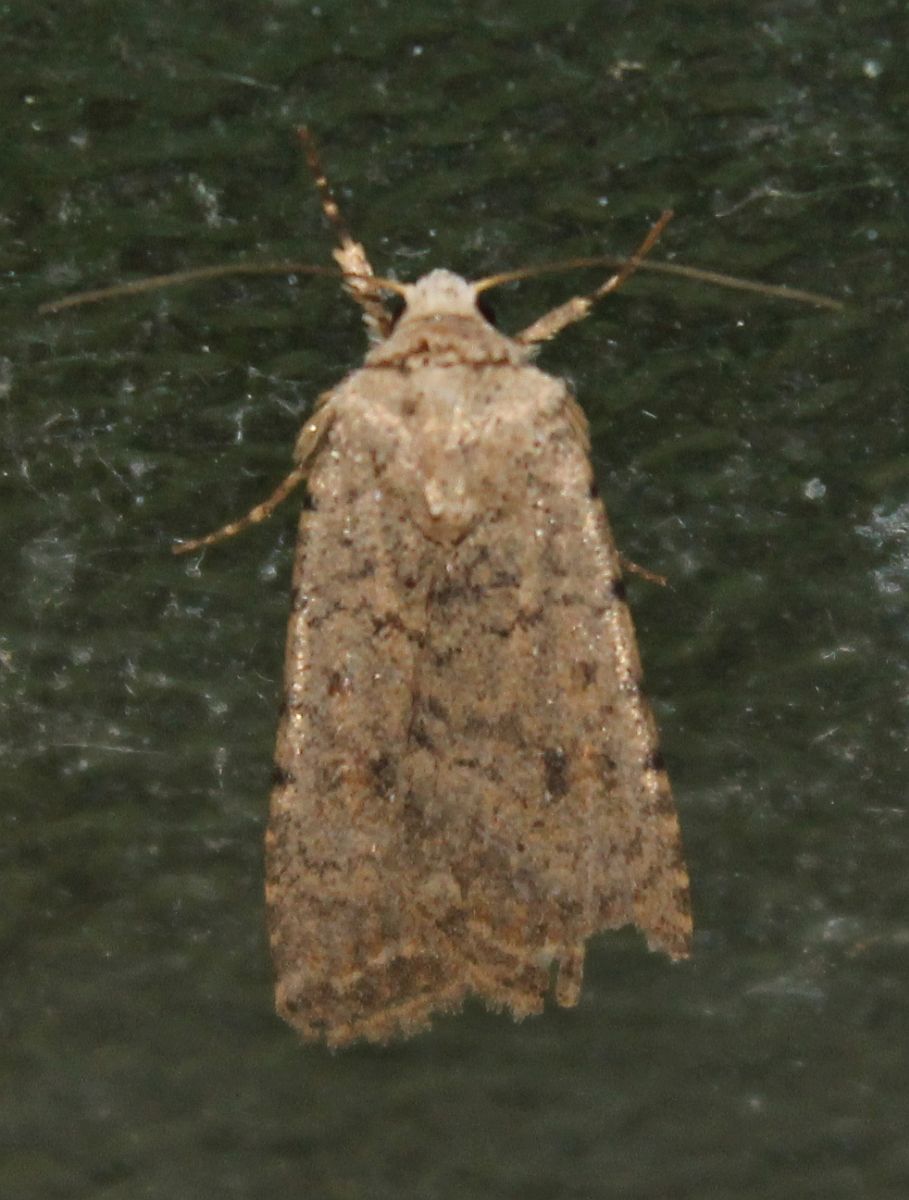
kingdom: Animalia
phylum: Arthropoda
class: Insecta
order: Lepidoptera
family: Noctuidae
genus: Caradrina
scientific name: Caradrina clavipalpis
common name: Pale mottled willow
